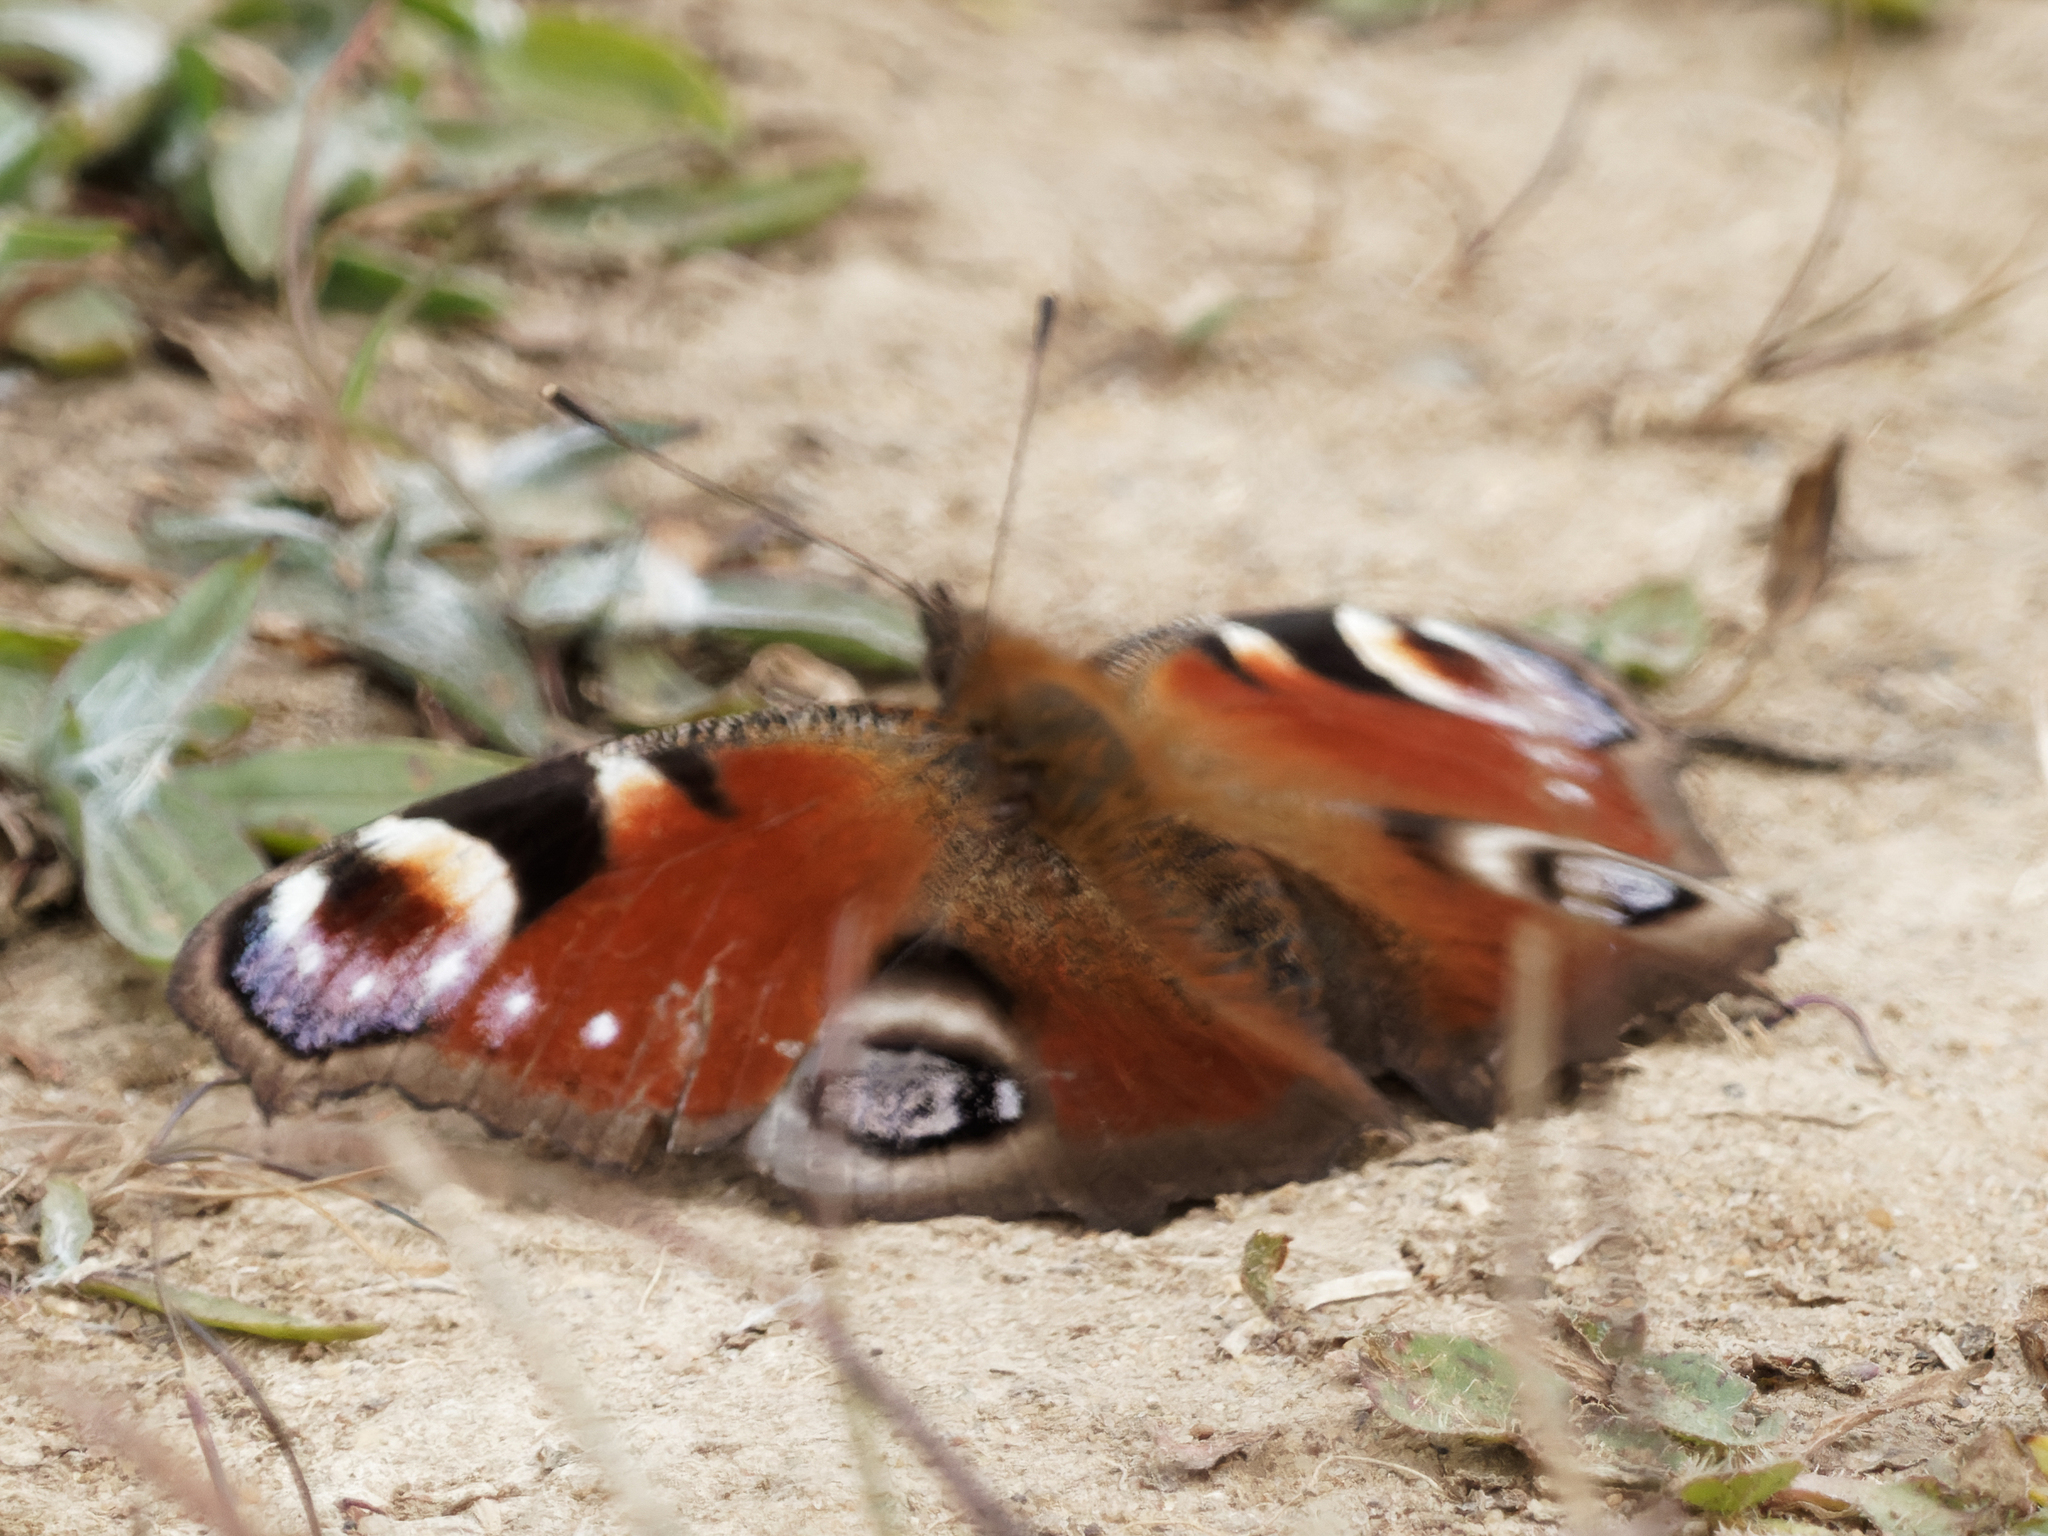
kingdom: Animalia
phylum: Arthropoda
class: Insecta
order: Lepidoptera
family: Nymphalidae
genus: Aglais
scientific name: Aglais io
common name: Peacock
